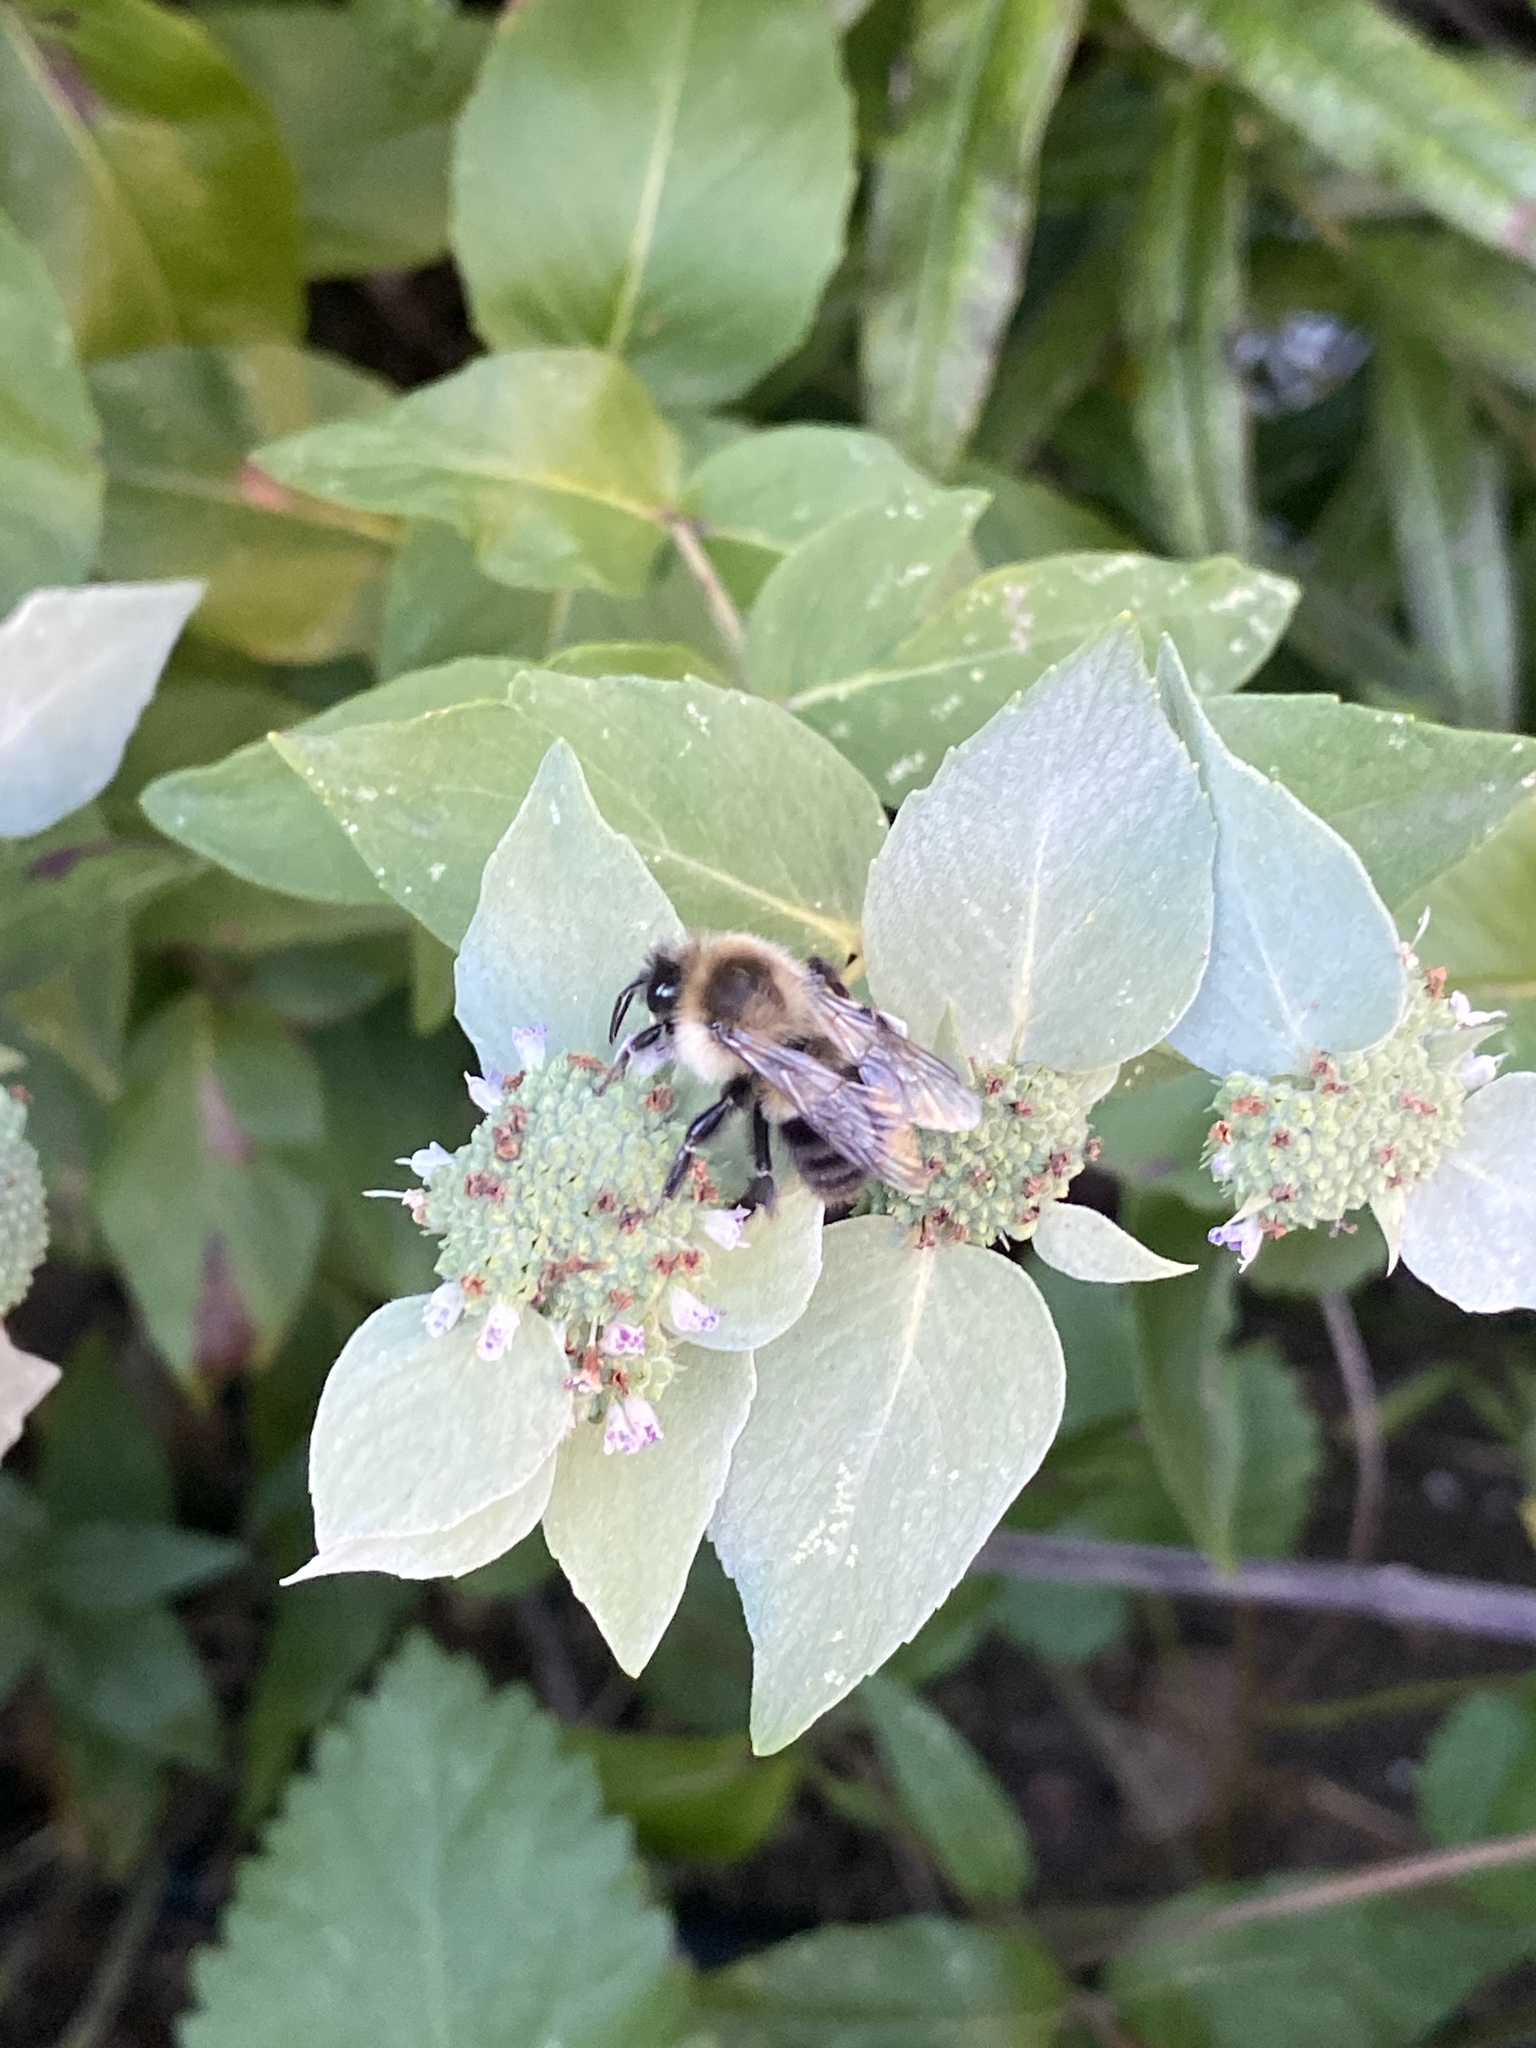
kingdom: Animalia
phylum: Arthropoda
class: Insecta
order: Hymenoptera
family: Apidae
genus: Bombus
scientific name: Bombus impatiens
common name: Common eastern bumble bee
